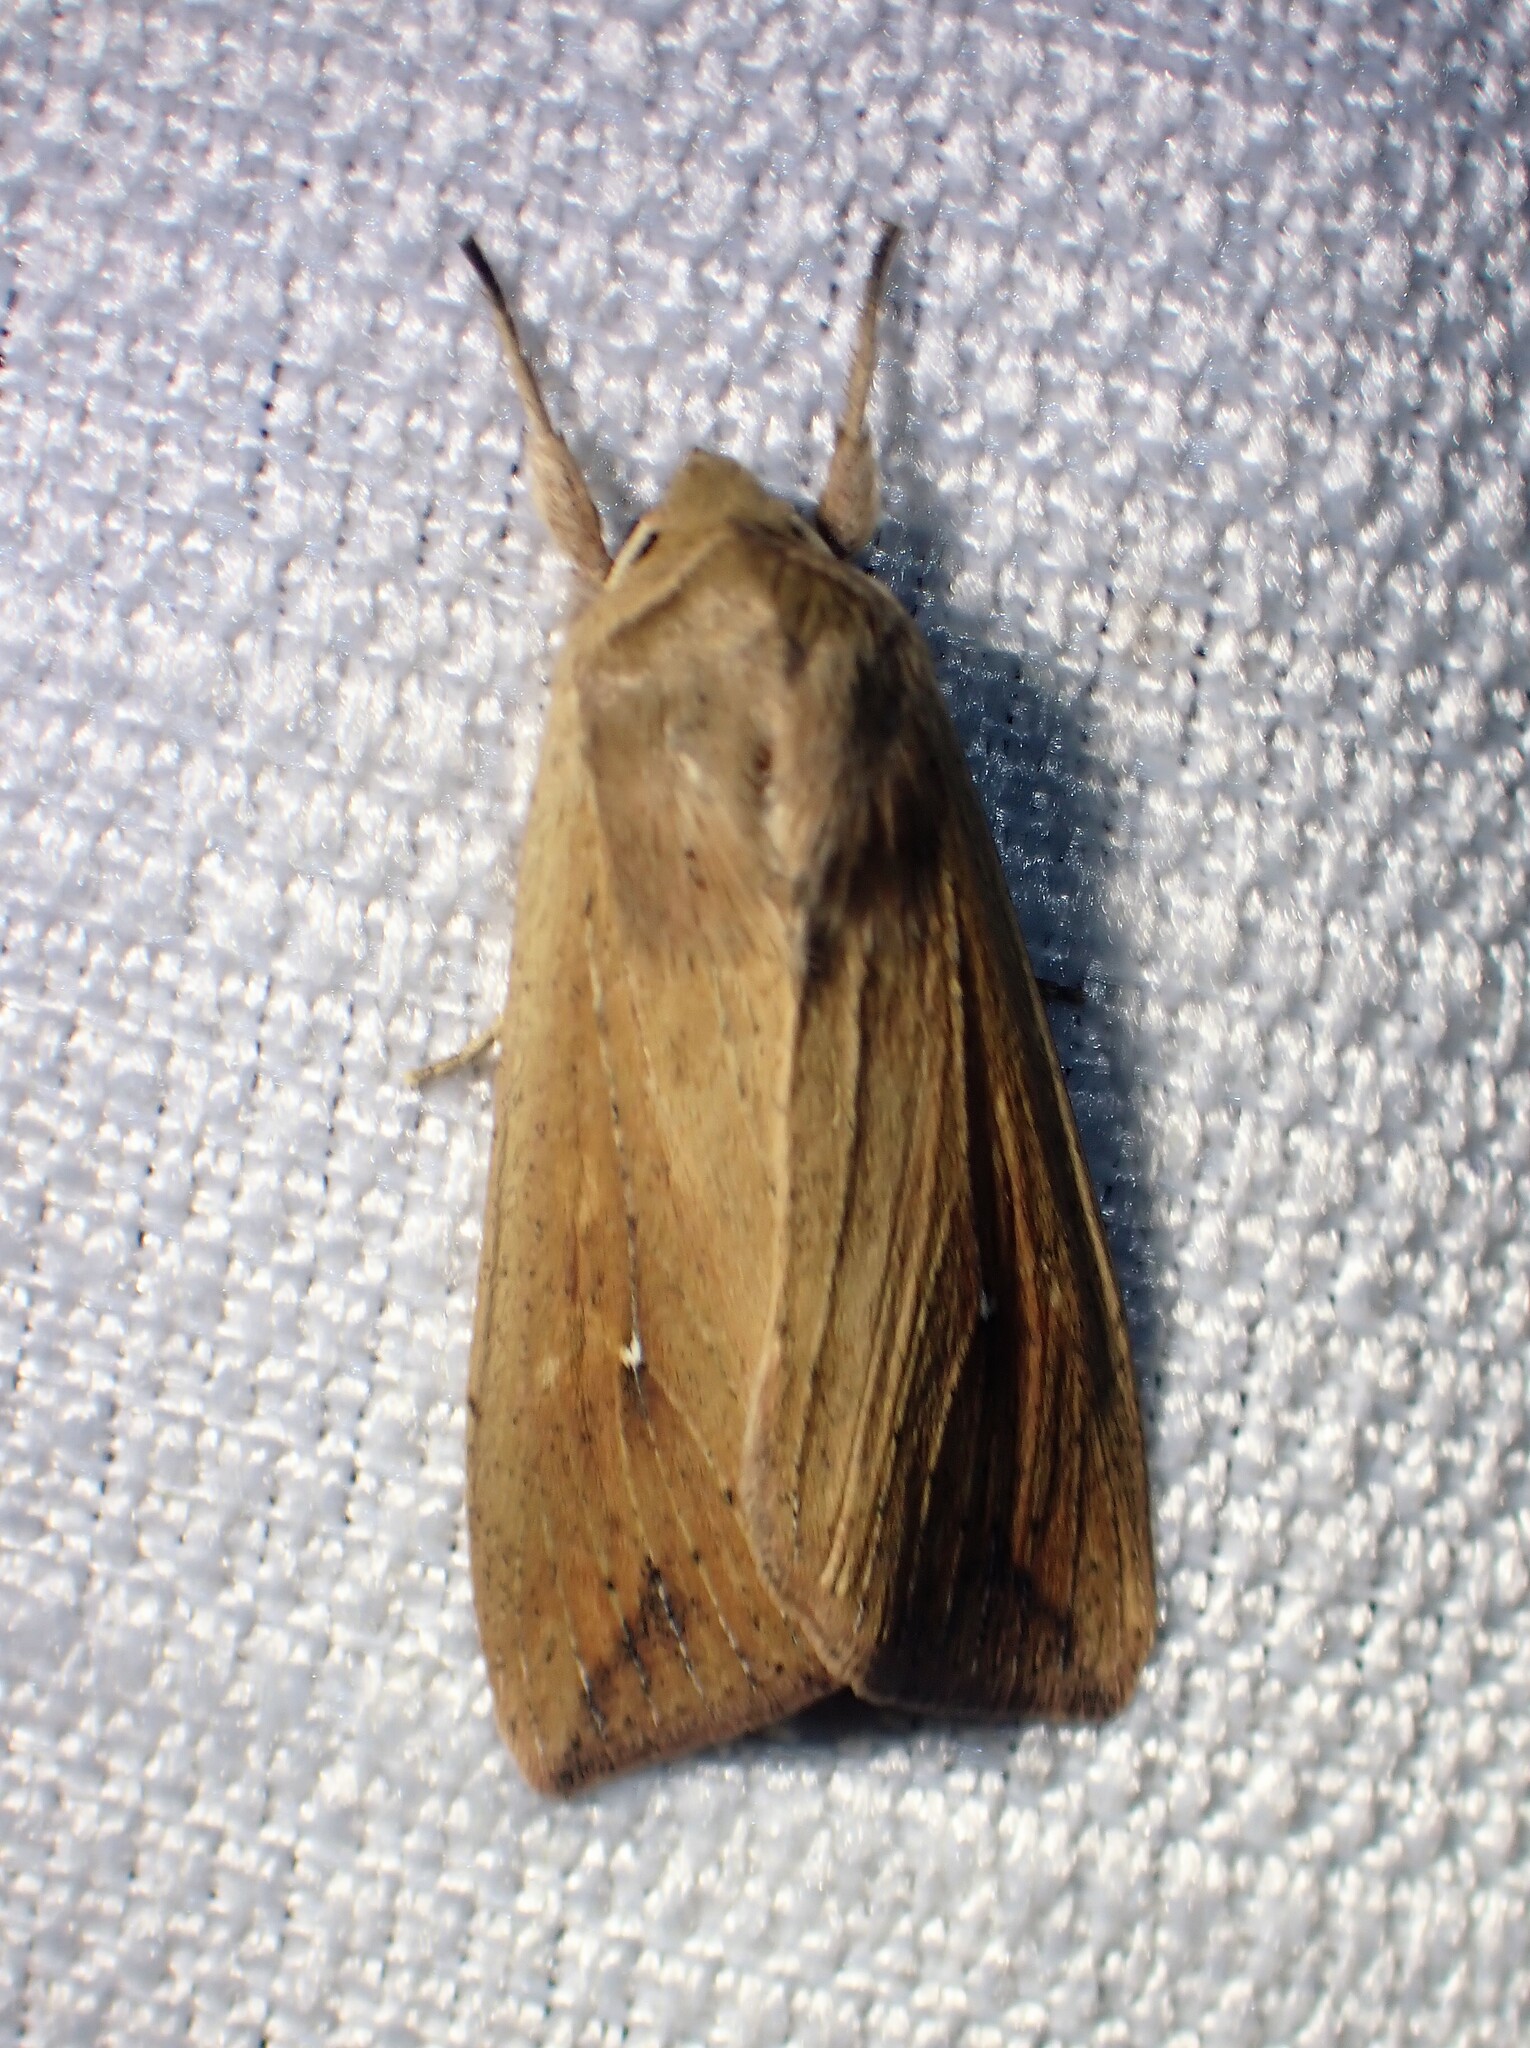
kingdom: Animalia
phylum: Arthropoda
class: Insecta
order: Lepidoptera
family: Noctuidae
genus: Mythimna
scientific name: Mythimna unipuncta
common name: White-speck
